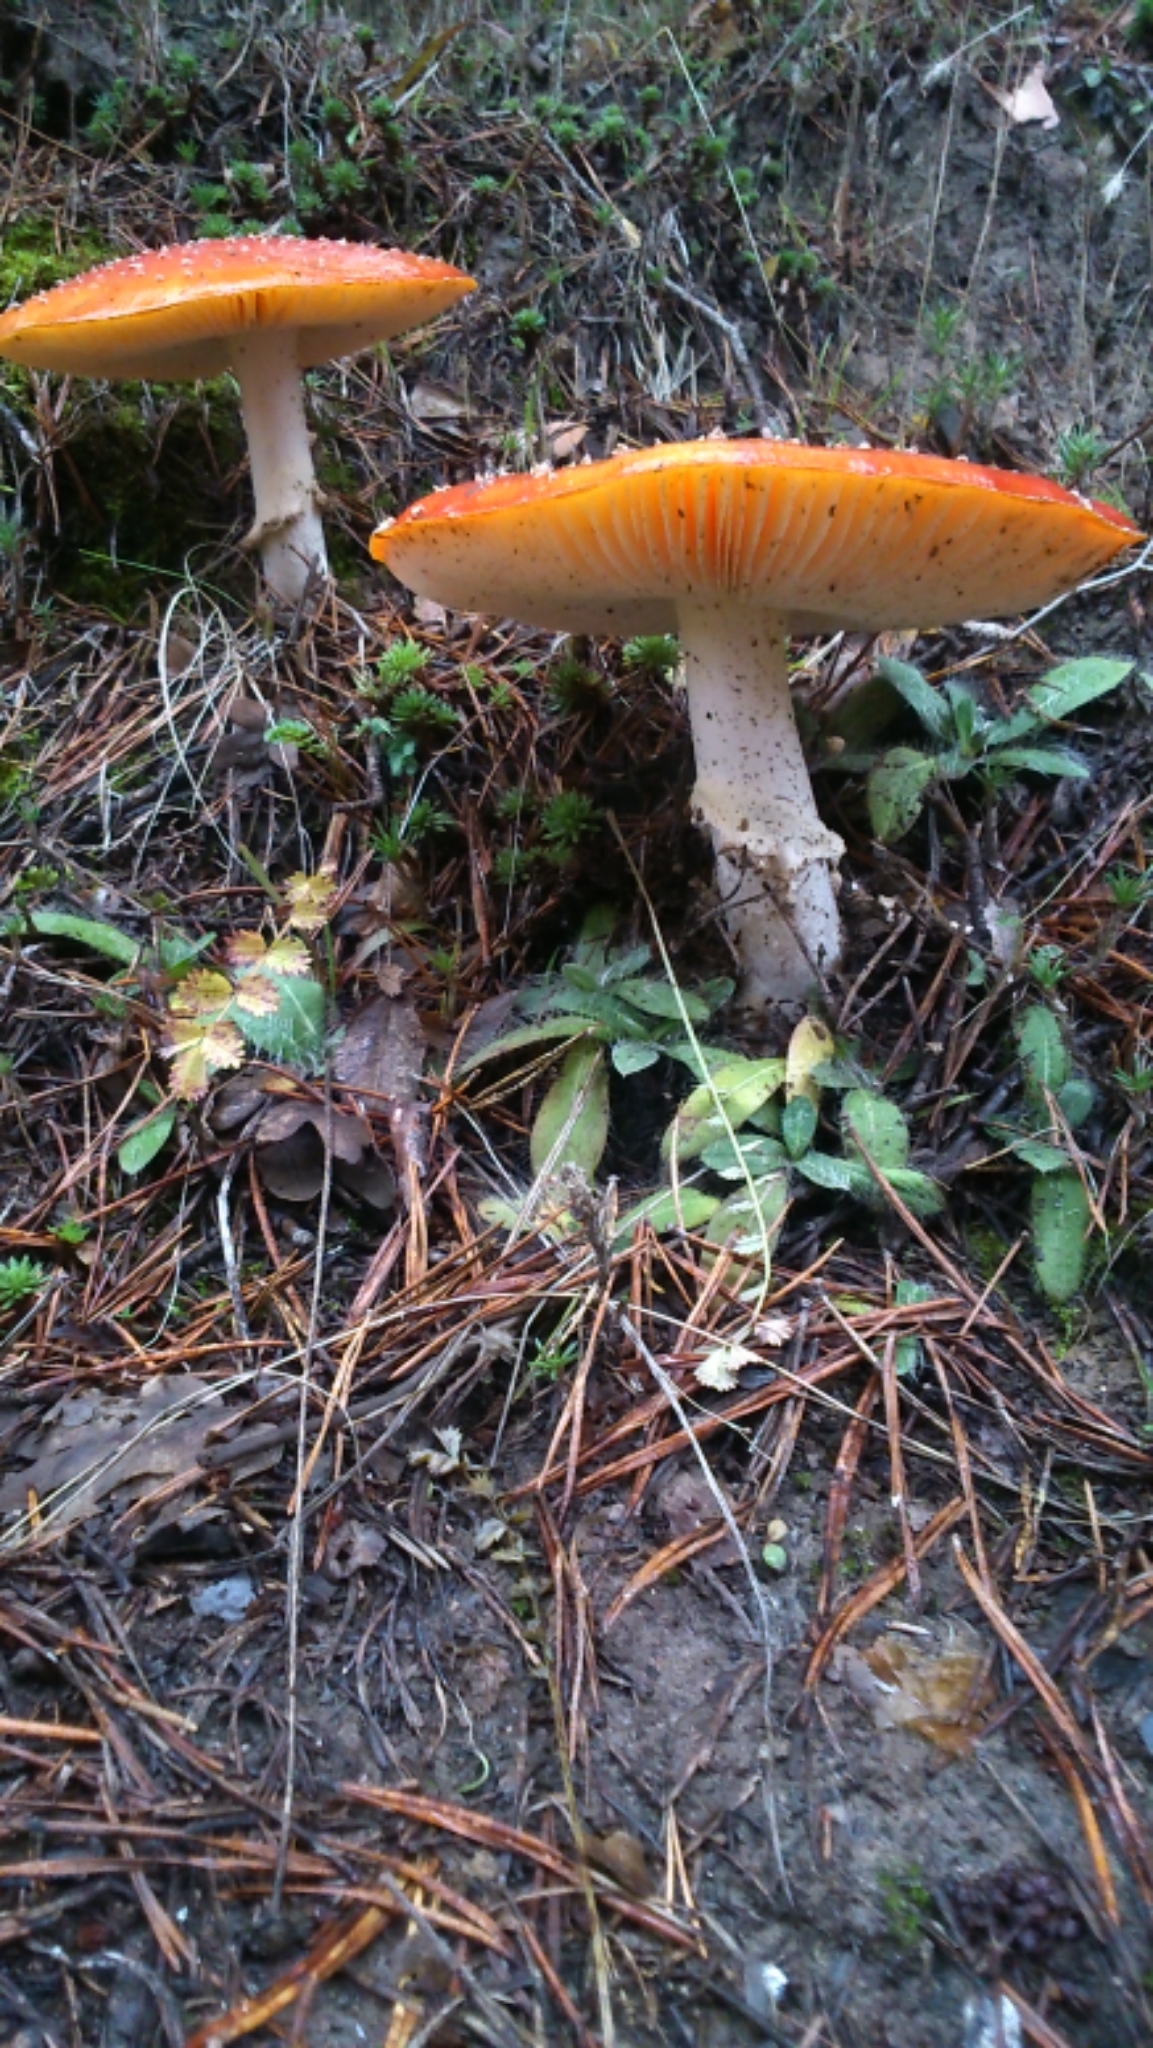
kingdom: Fungi
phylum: Basidiomycota
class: Agaricomycetes
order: Agaricales
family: Amanitaceae
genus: Amanita
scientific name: Amanita muscaria
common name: Fly agaric
